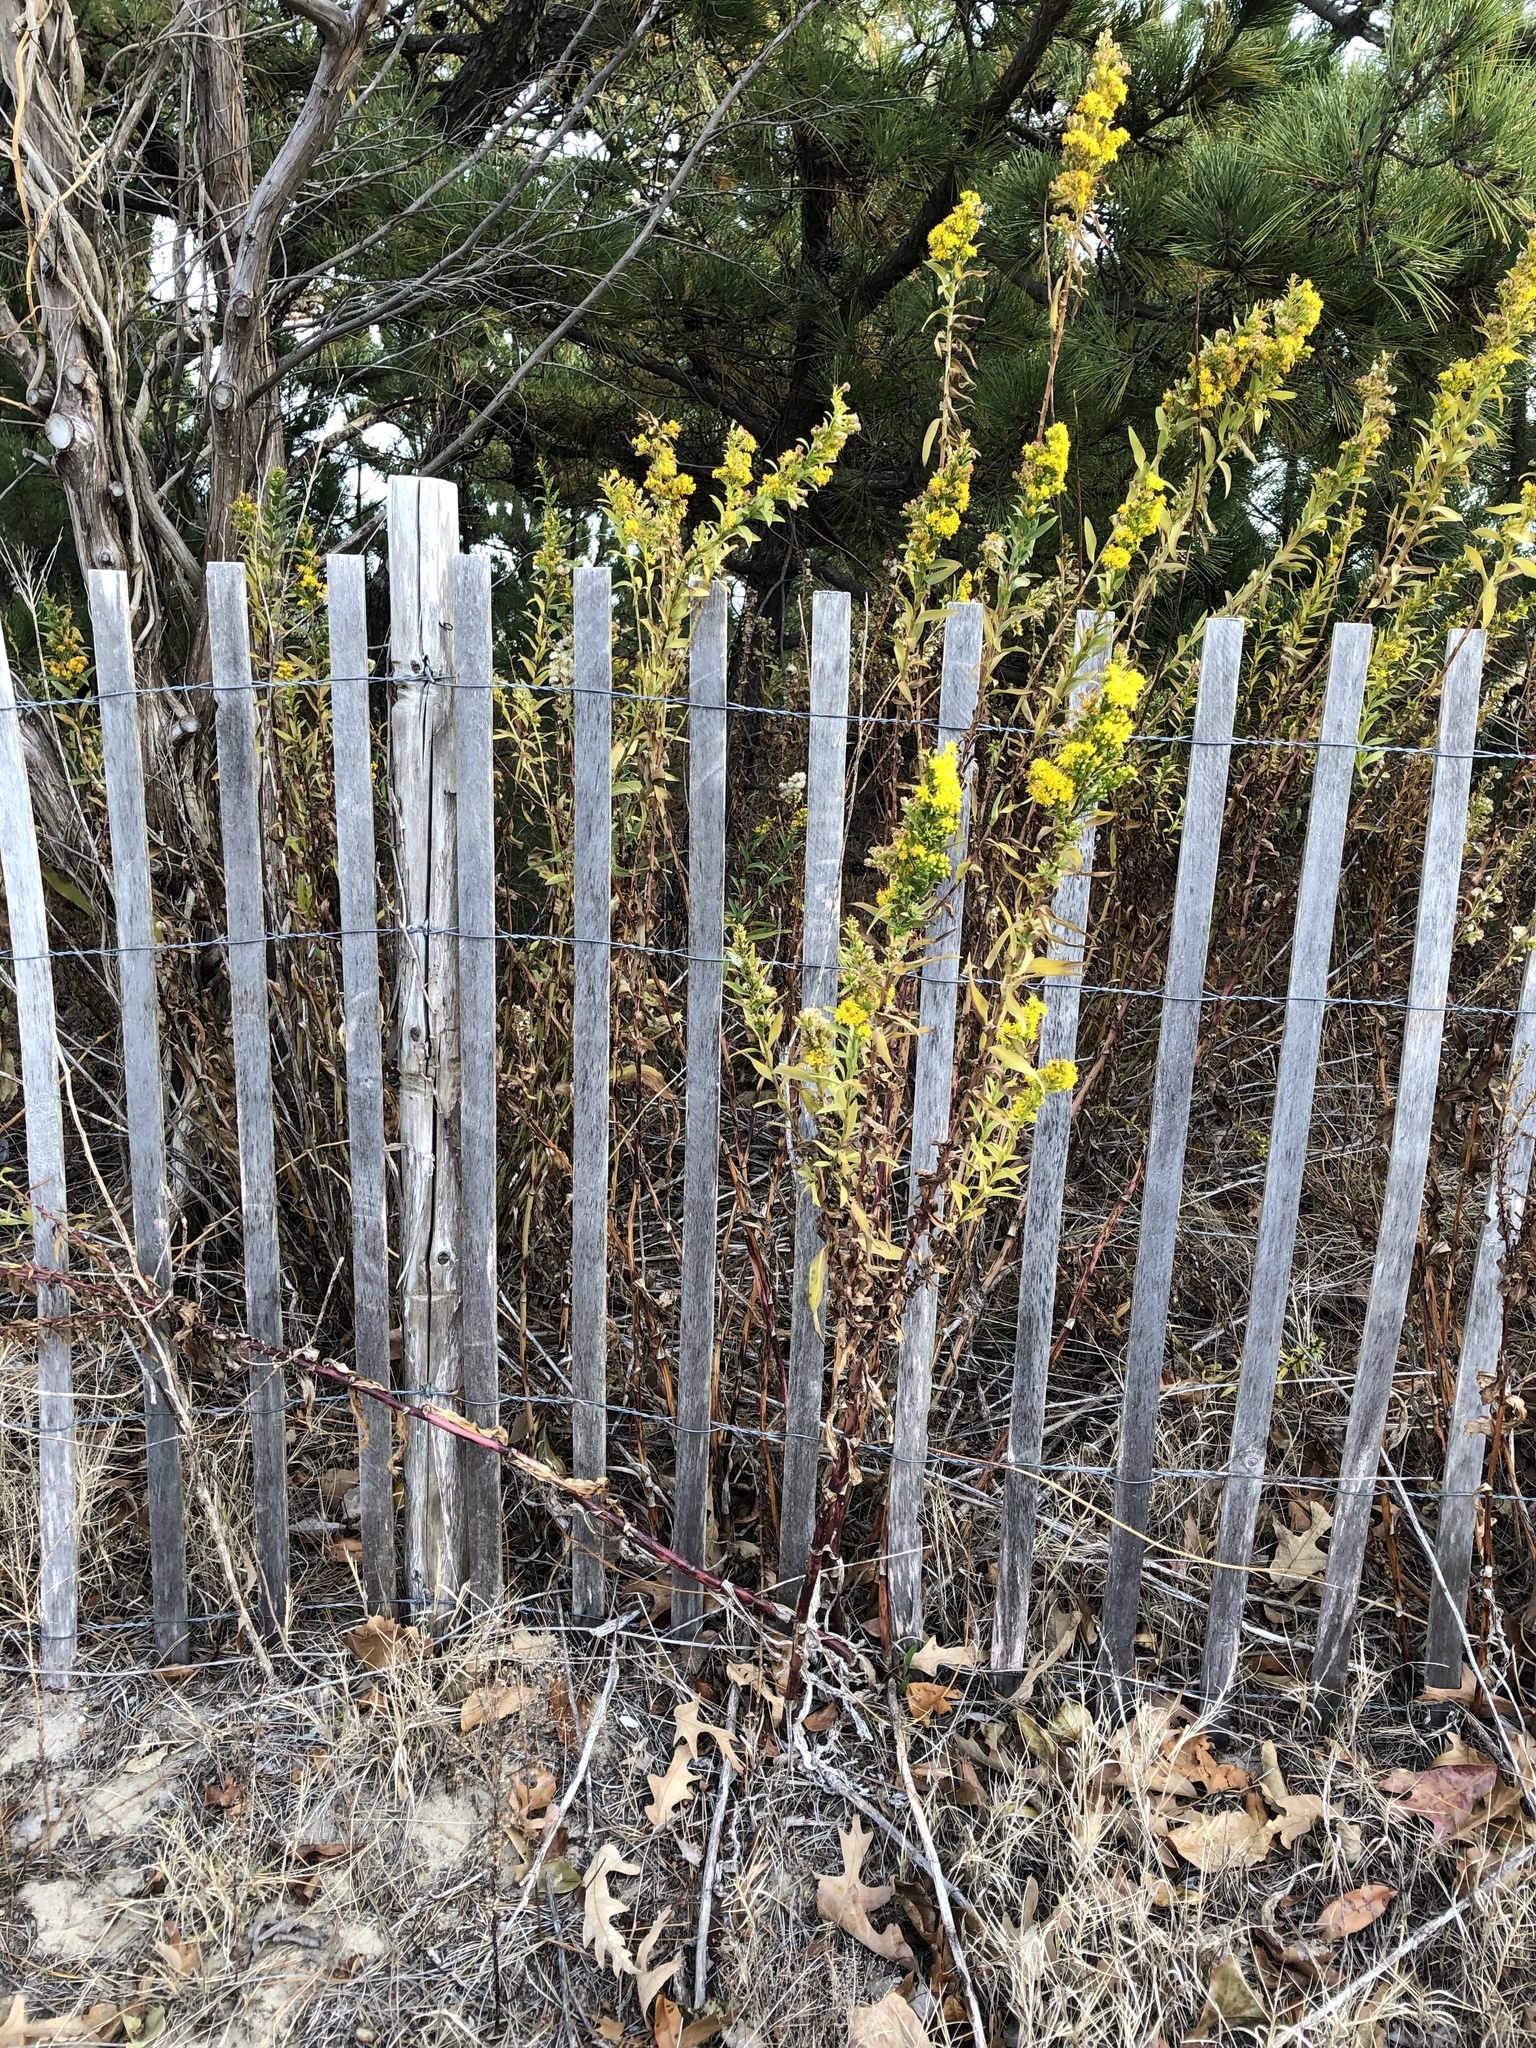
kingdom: Plantae
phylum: Tracheophyta
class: Magnoliopsida
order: Asterales
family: Asteraceae
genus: Solidago
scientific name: Solidago sempervirens
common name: Salt-marsh goldenrod
